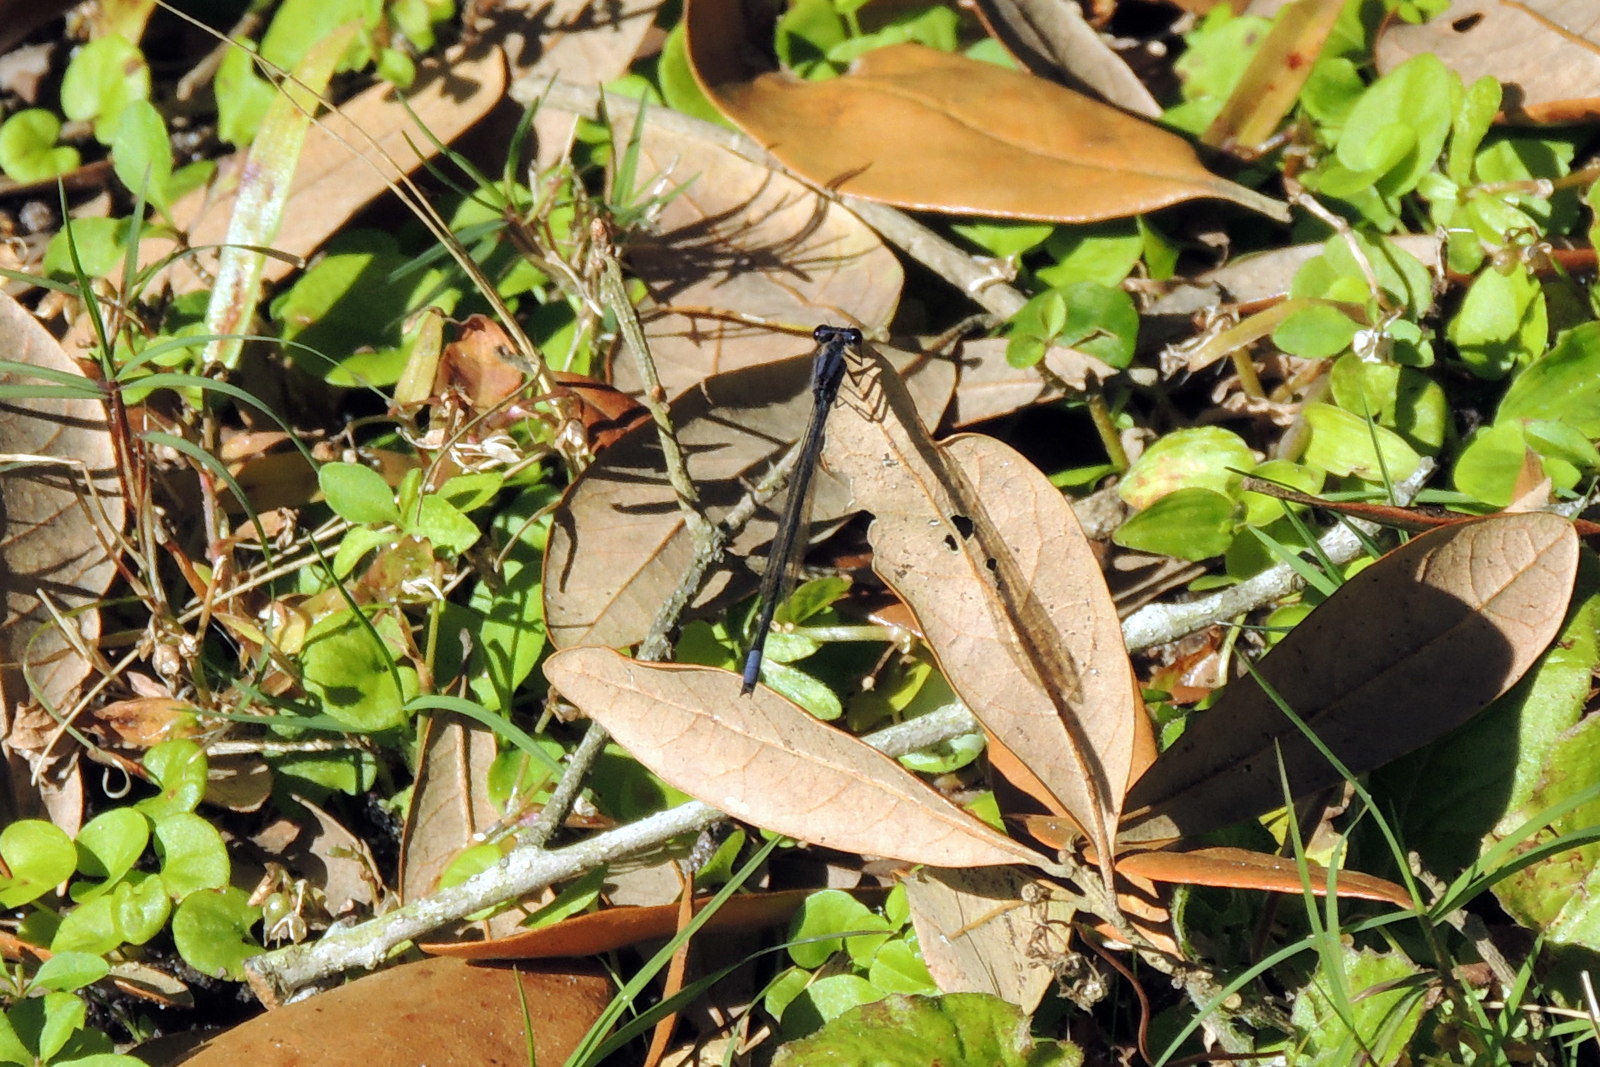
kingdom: Animalia
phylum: Arthropoda
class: Insecta
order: Odonata
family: Coenagrionidae
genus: Enallagma
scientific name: Enallagma cardenium
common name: Purple bluet
